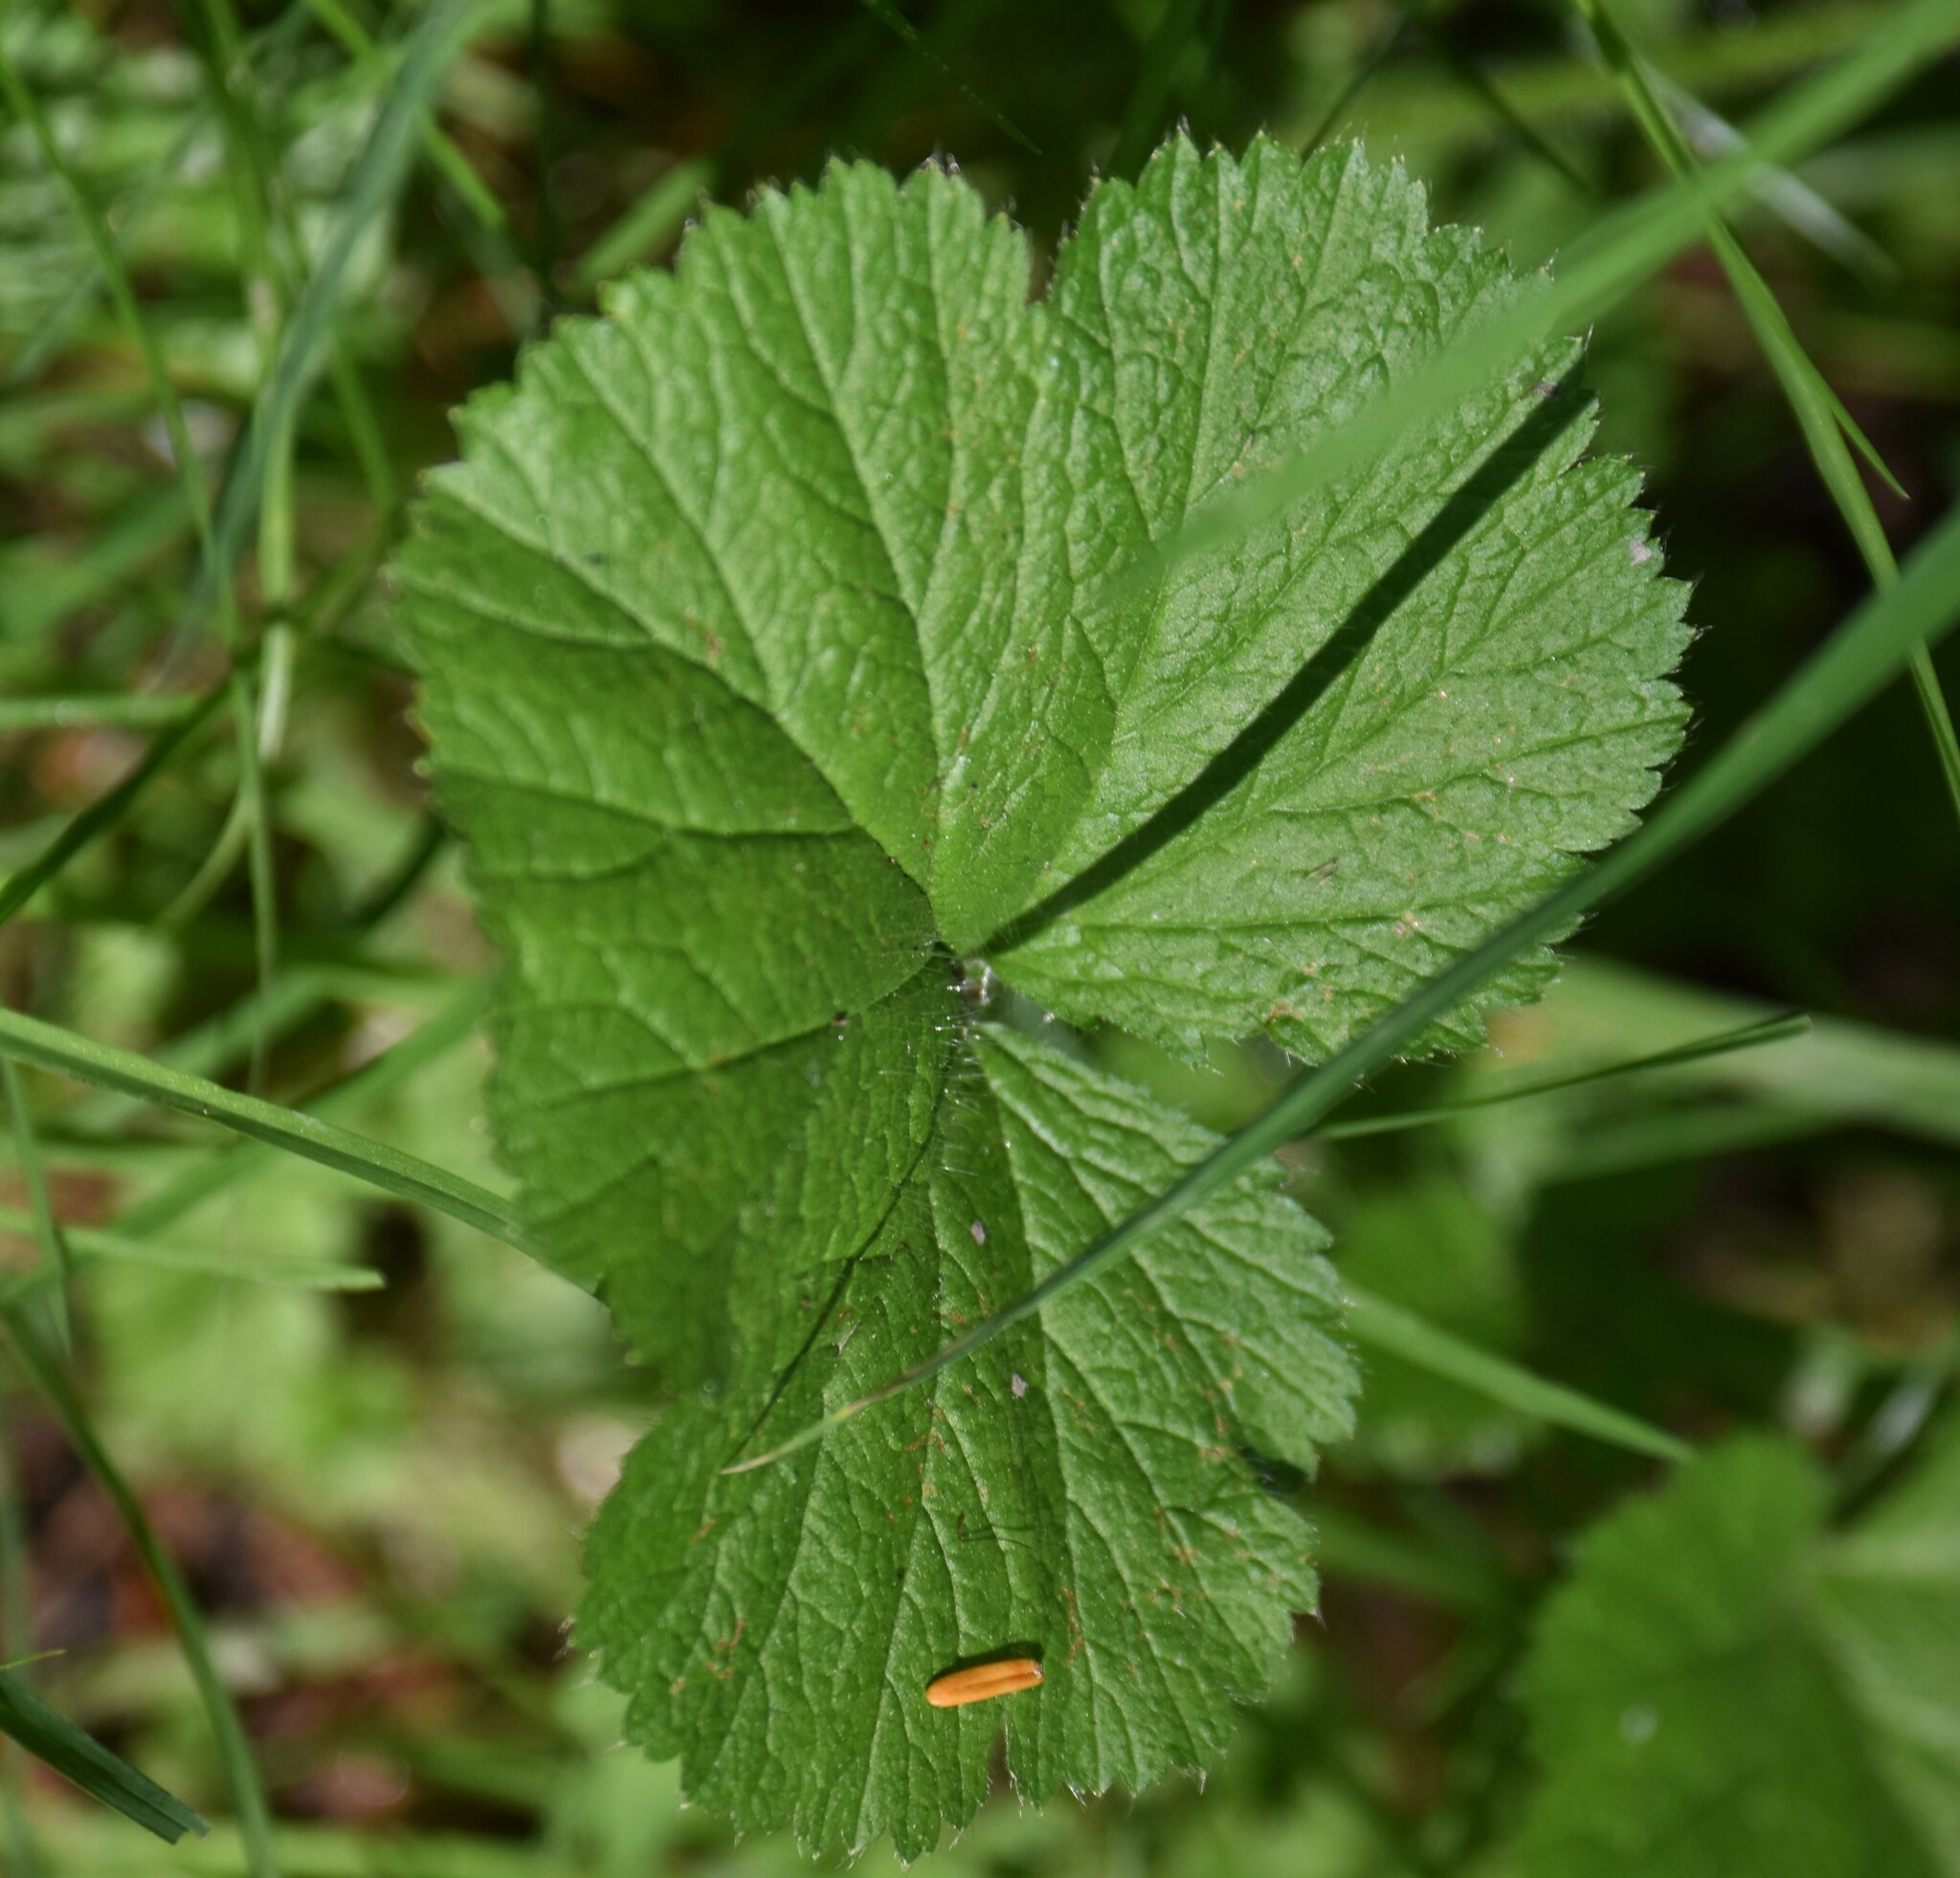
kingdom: Plantae
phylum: Tracheophyta
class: Magnoliopsida
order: Rosales
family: Rosaceae
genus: Geum
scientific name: Geum macrophyllum
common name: Large-leaved avens
